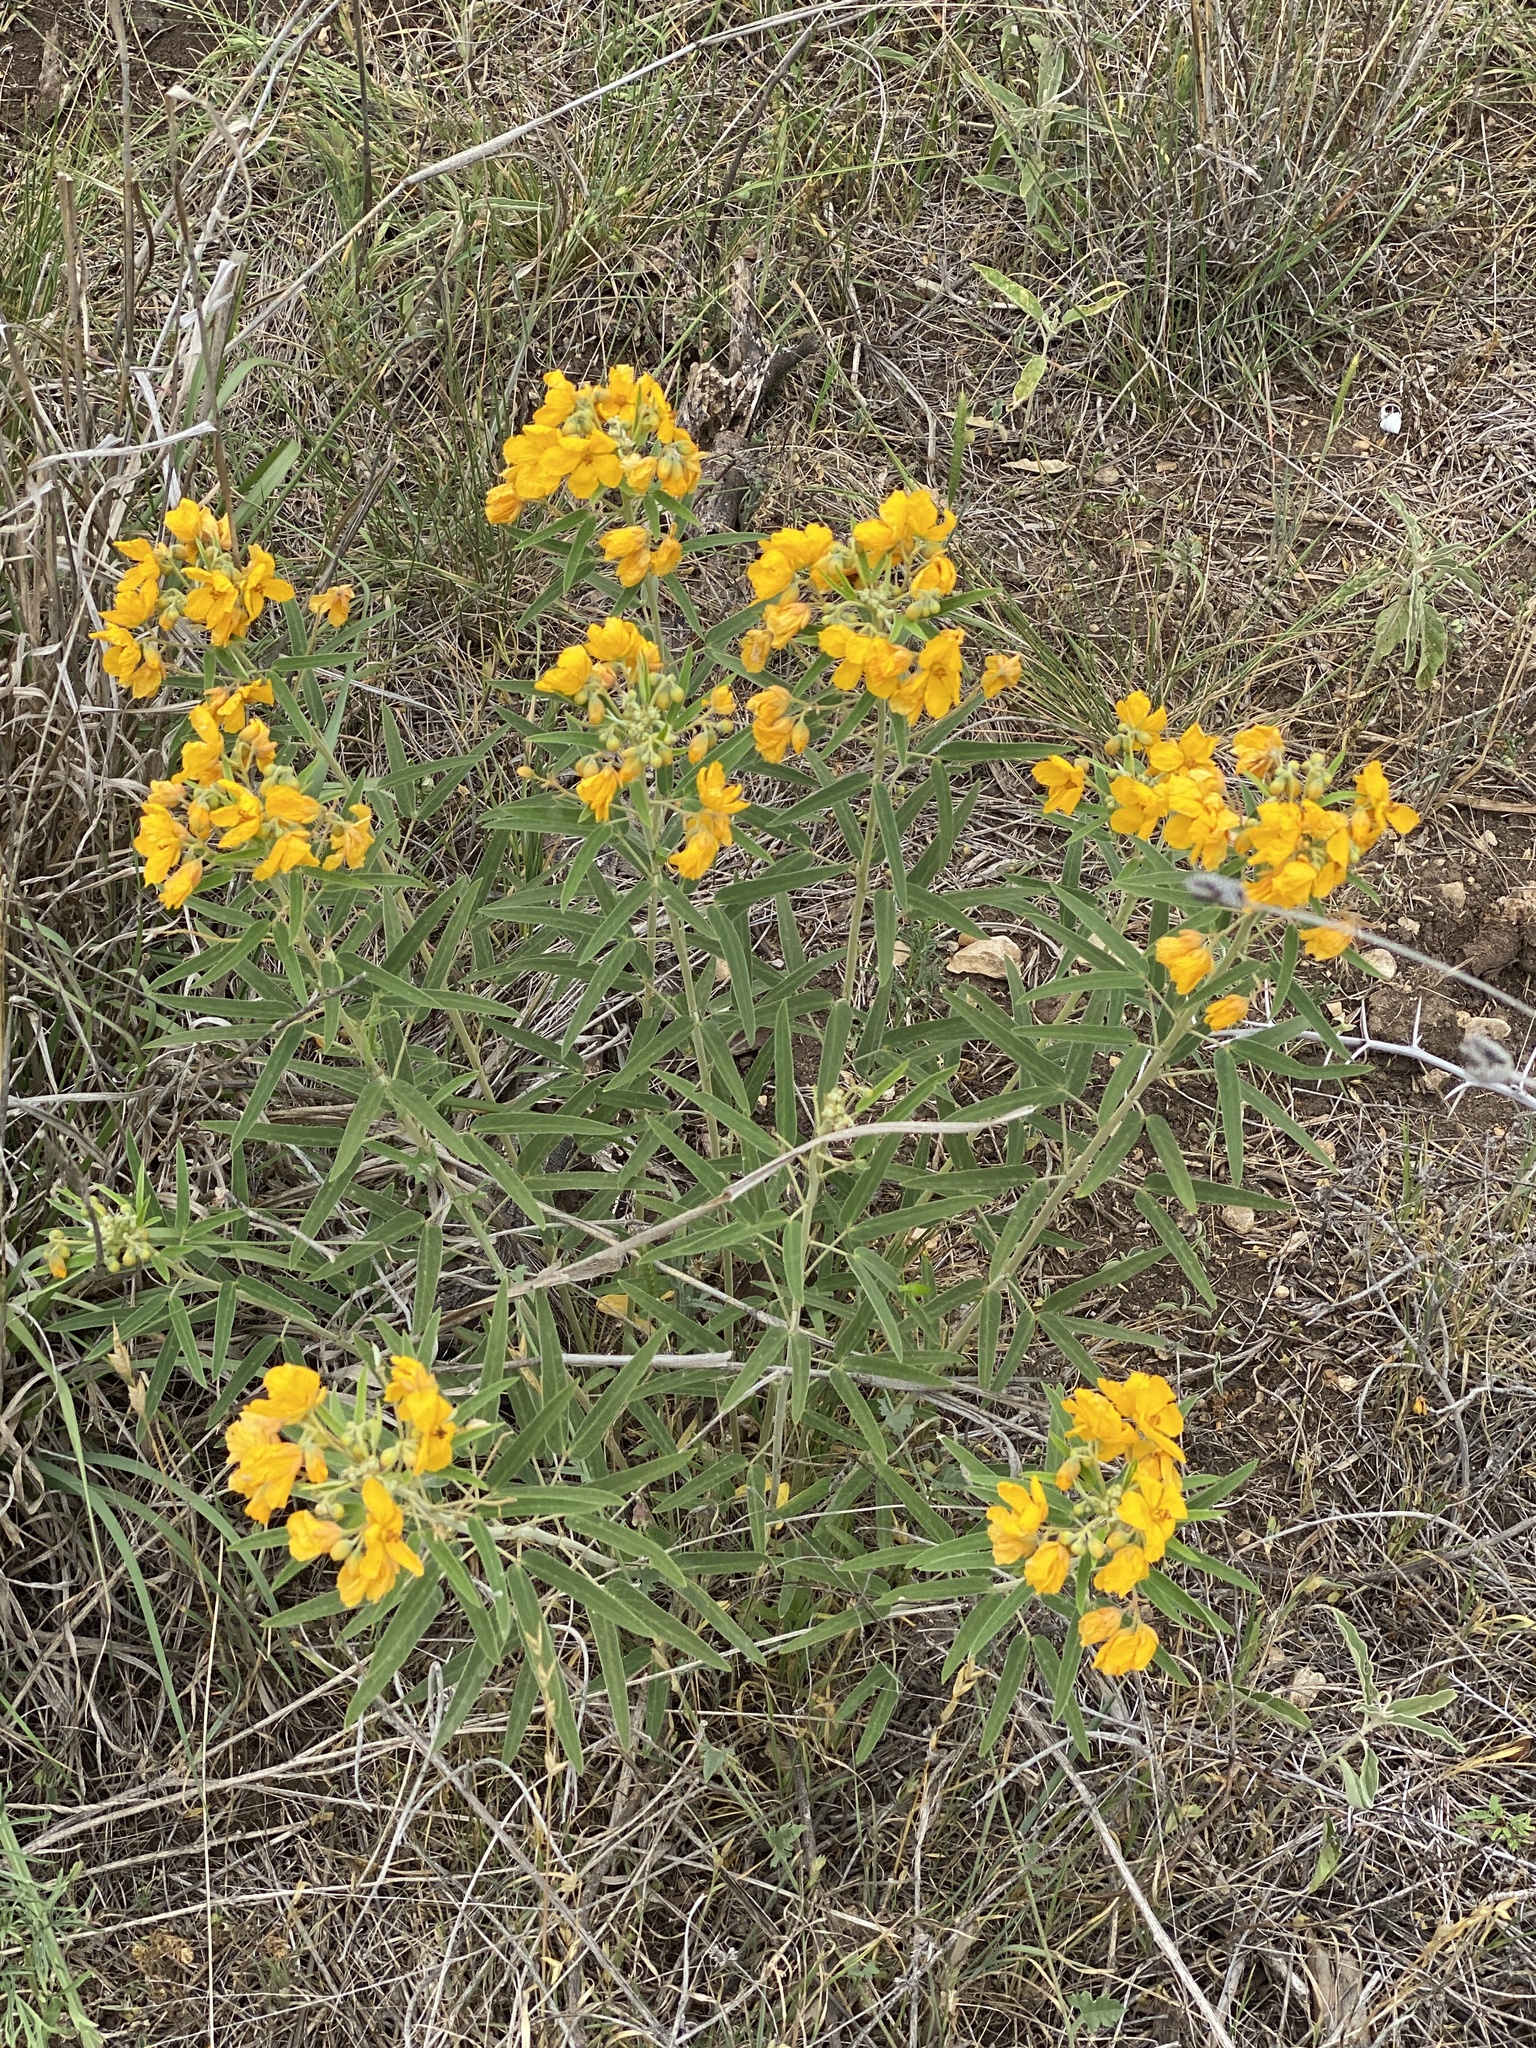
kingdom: Plantae
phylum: Tracheophyta
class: Magnoliopsida
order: Fabales
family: Fabaceae
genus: Senna
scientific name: Senna roemeriana
